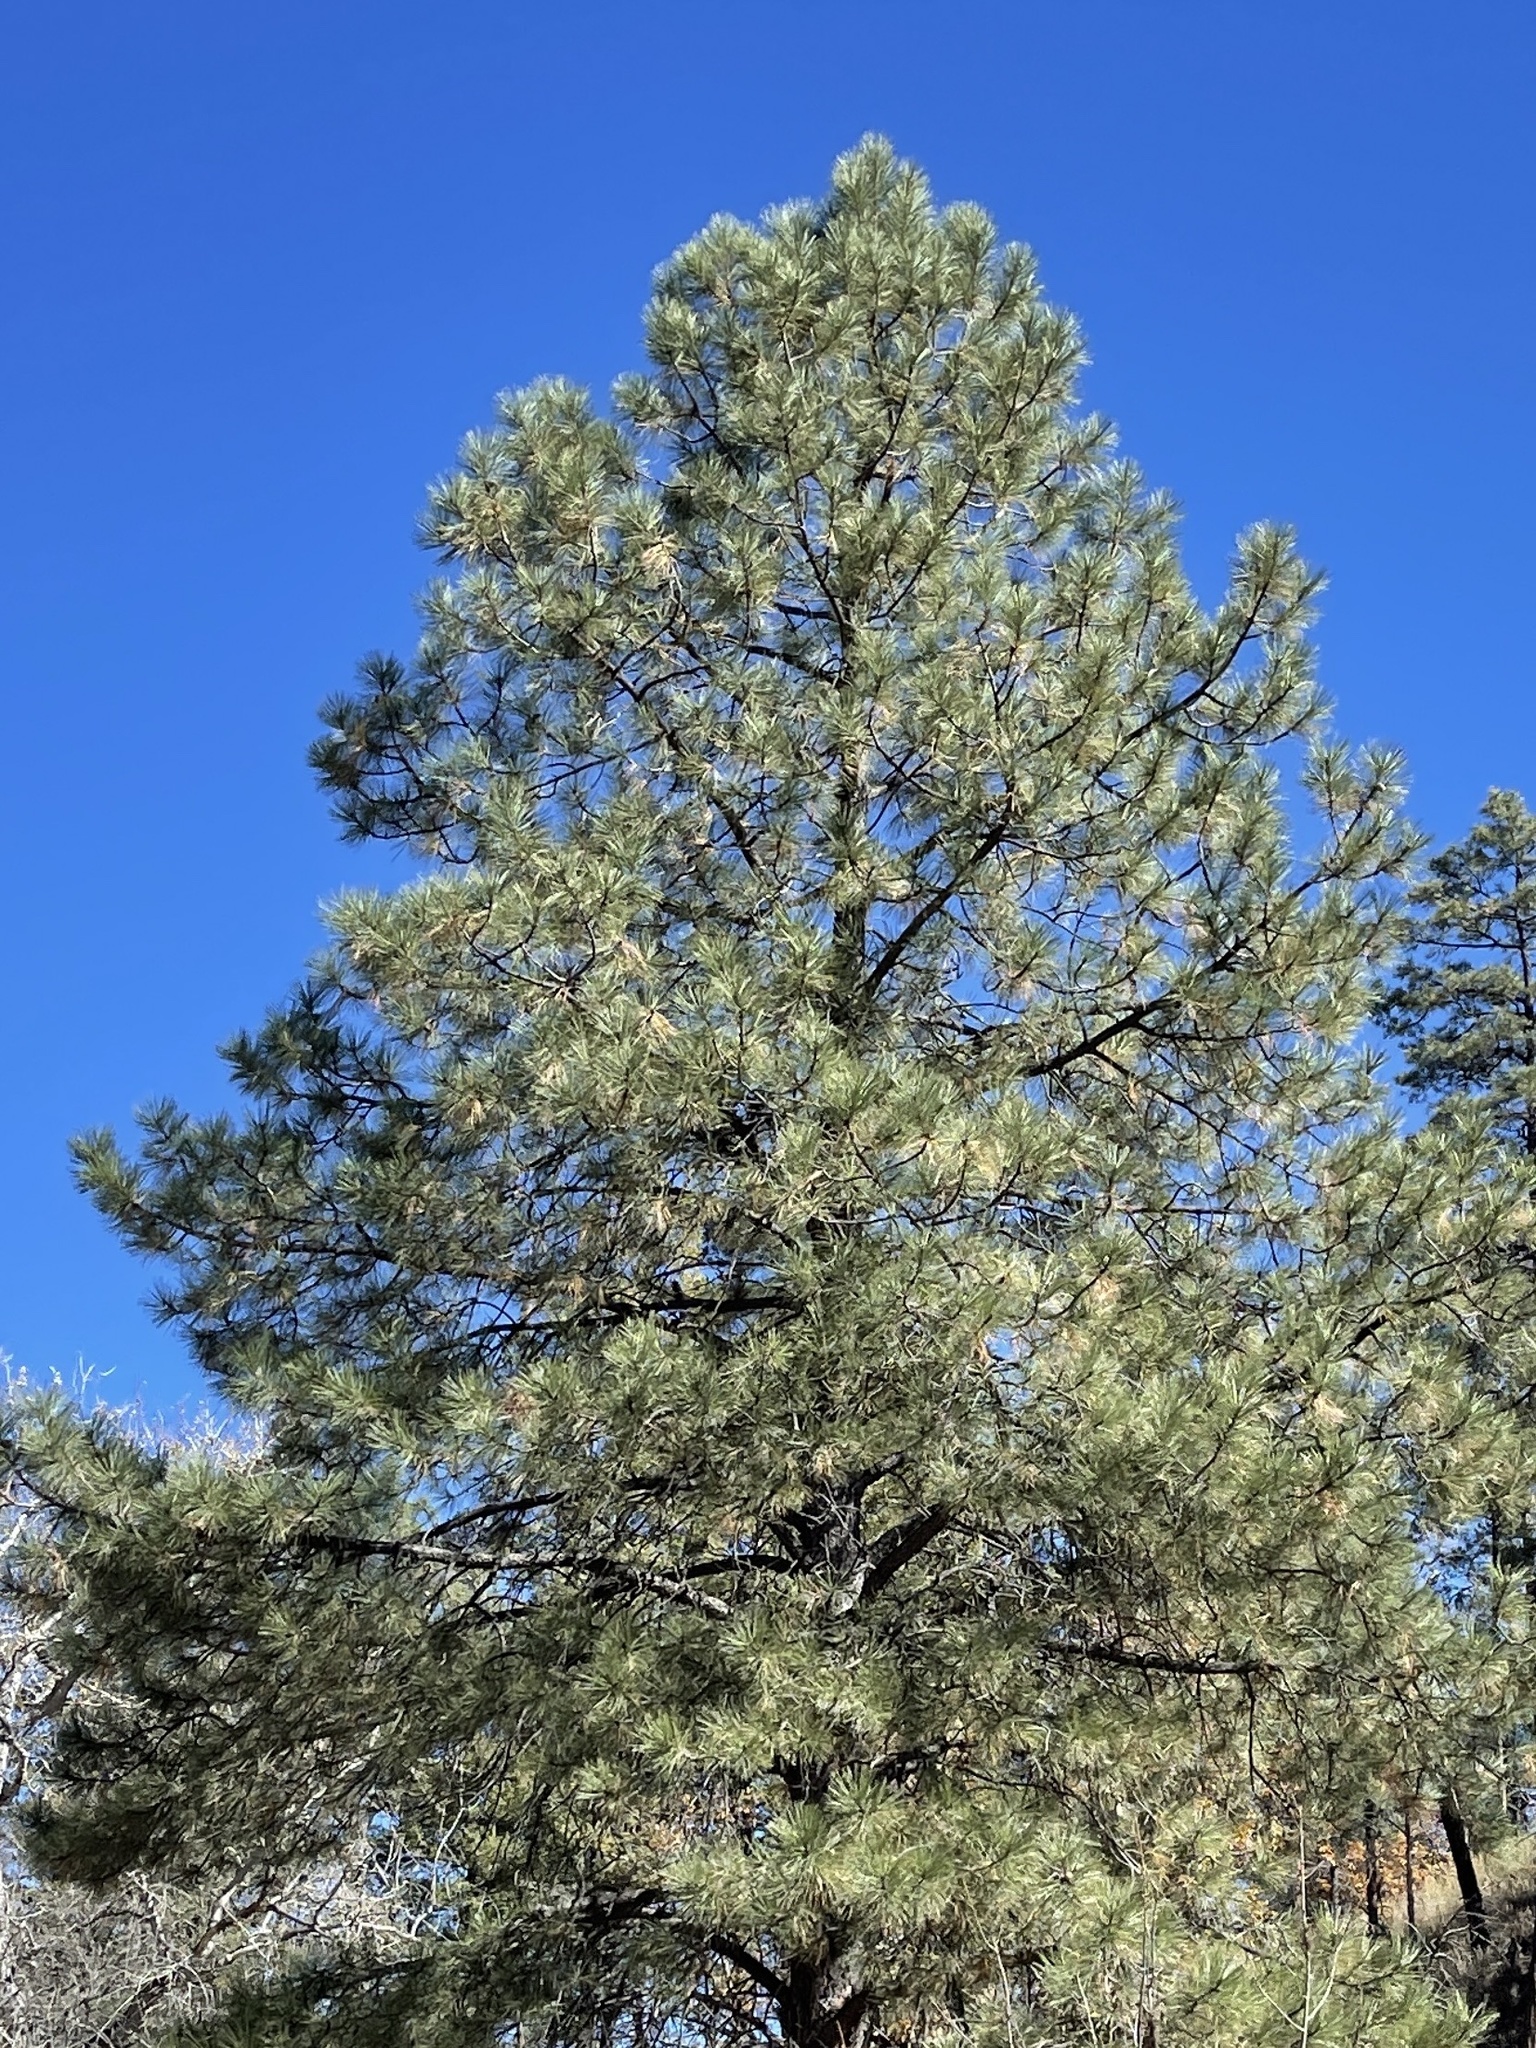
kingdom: Plantae
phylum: Tracheophyta
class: Pinopsida
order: Pinales
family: Pinaceae
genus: Pinus
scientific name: Pinus ponderosa
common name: Western yellow-pine
